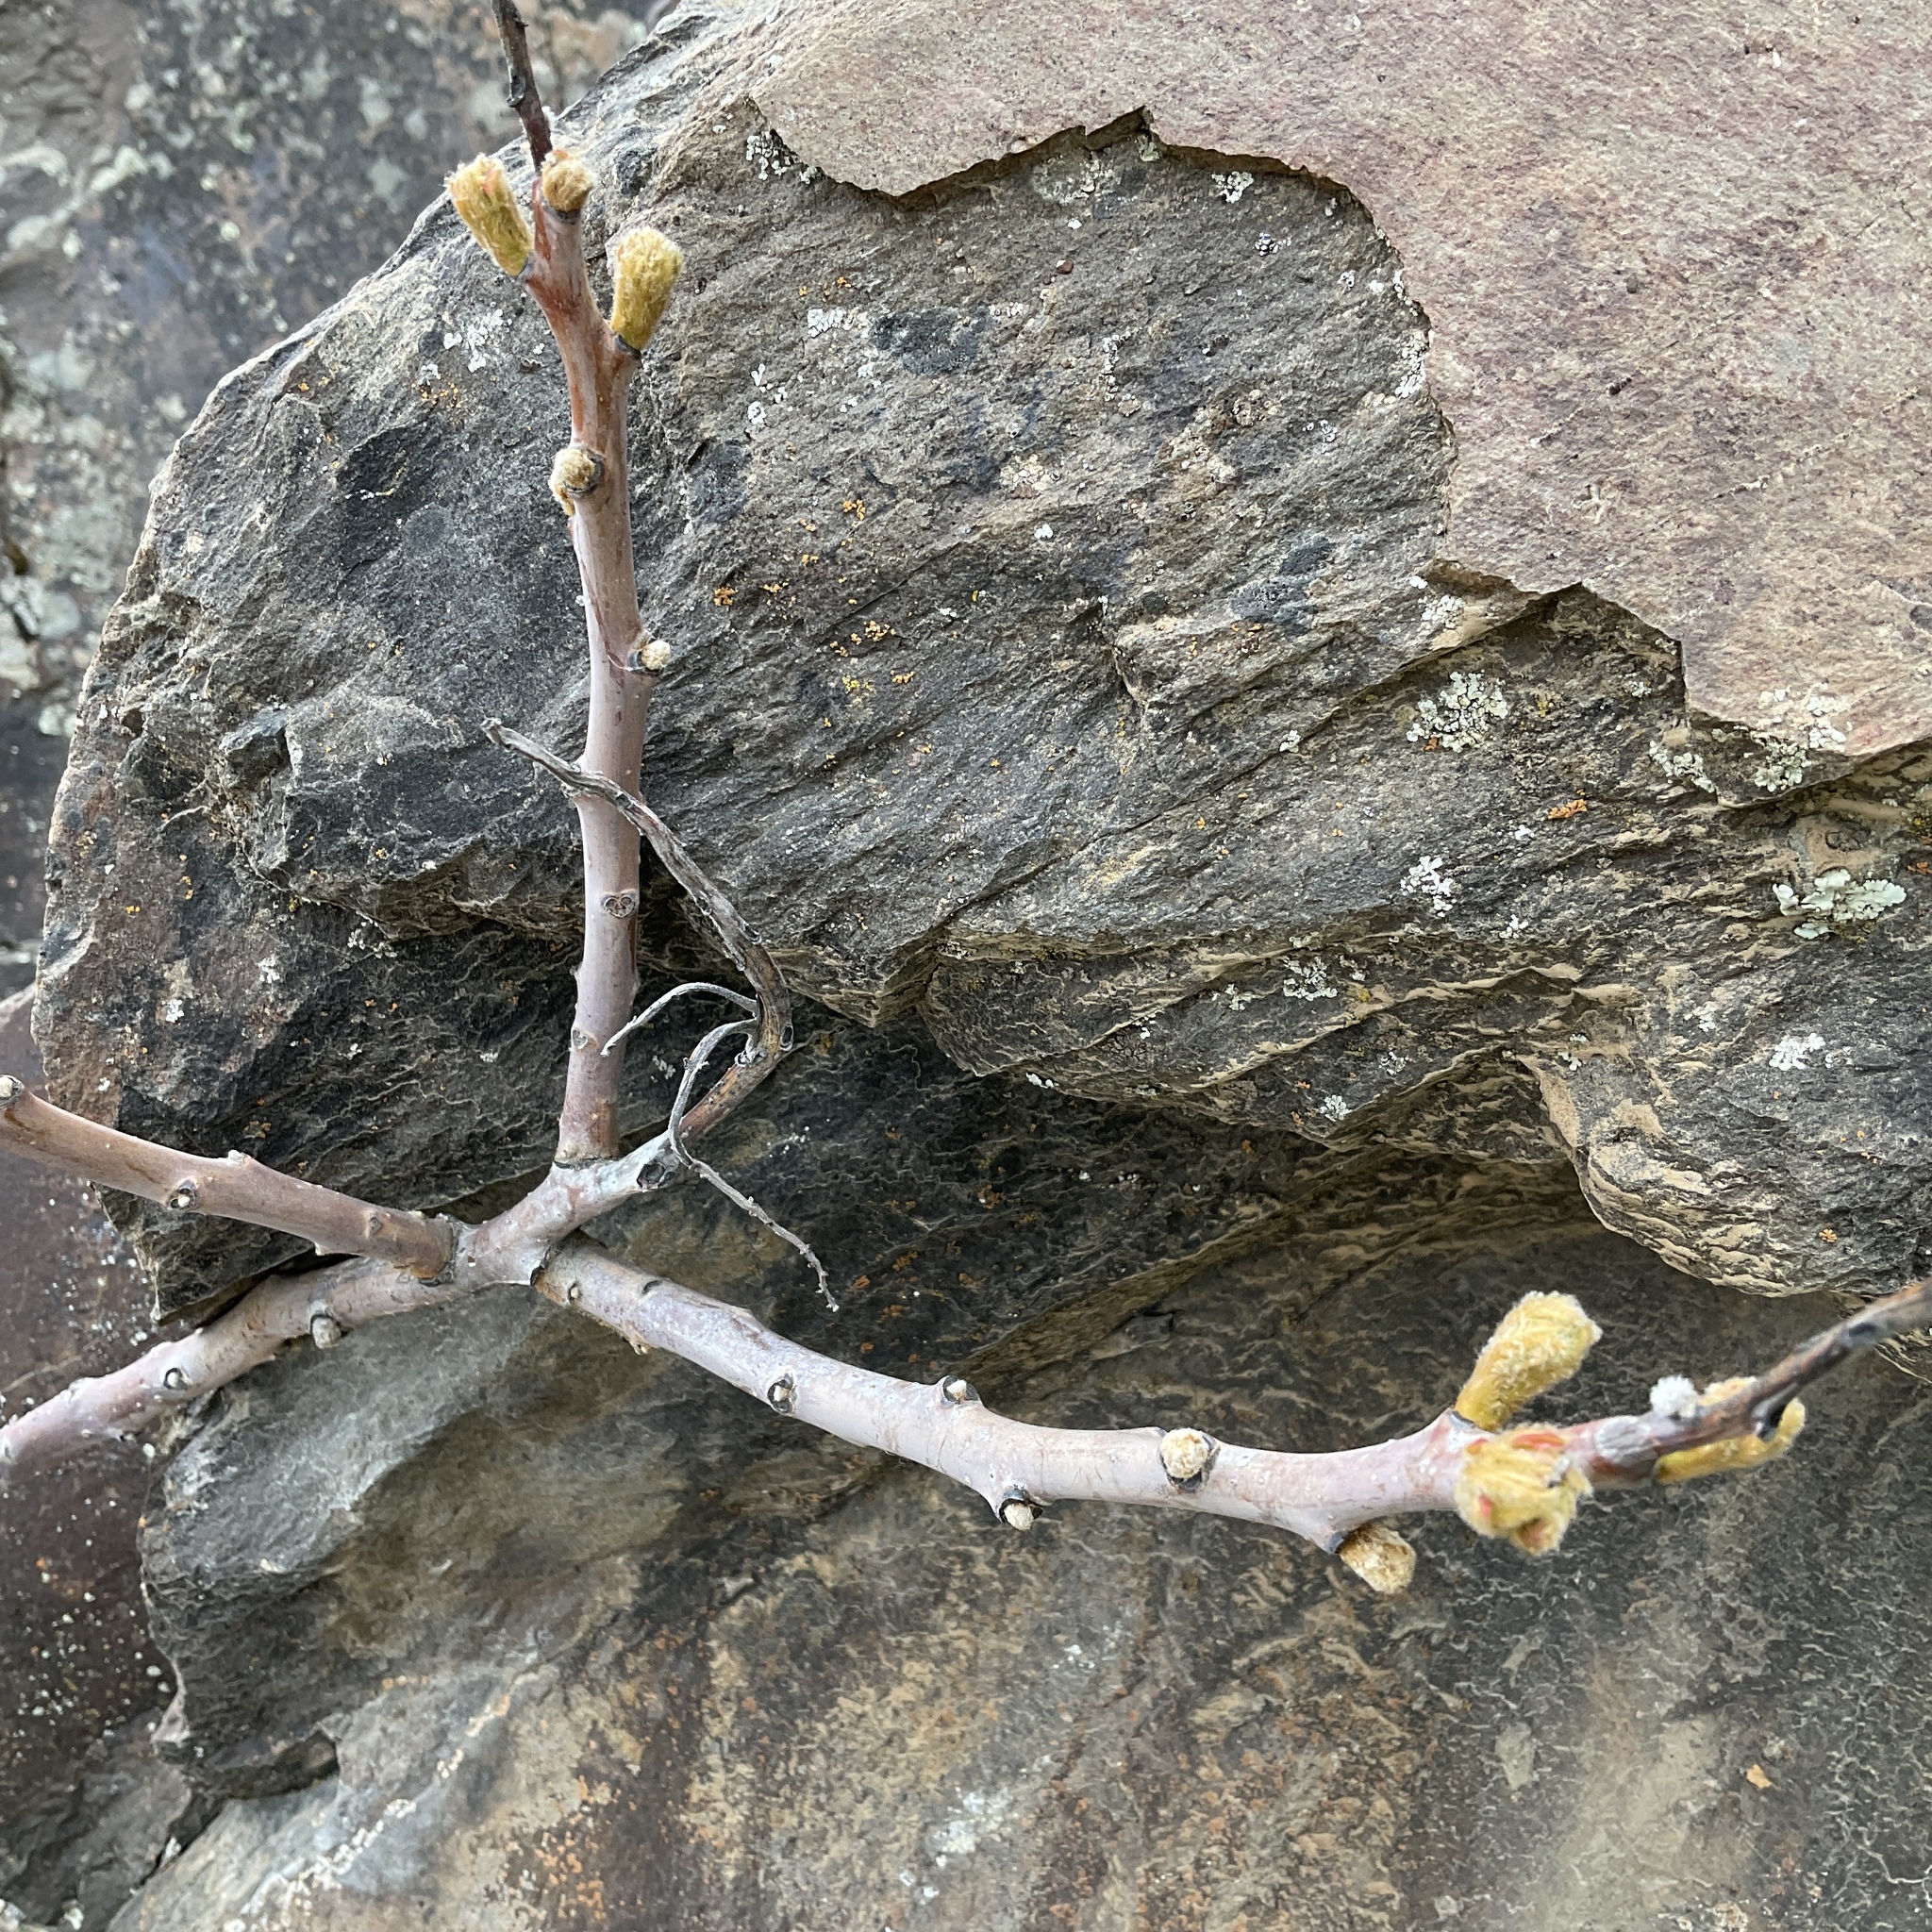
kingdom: Plantae
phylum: Tracheophyta
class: Magnoliopsida
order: Sapindales
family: Anacardiaceae
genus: Rhus
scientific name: Rhus glabra
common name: Scarlet sumac
